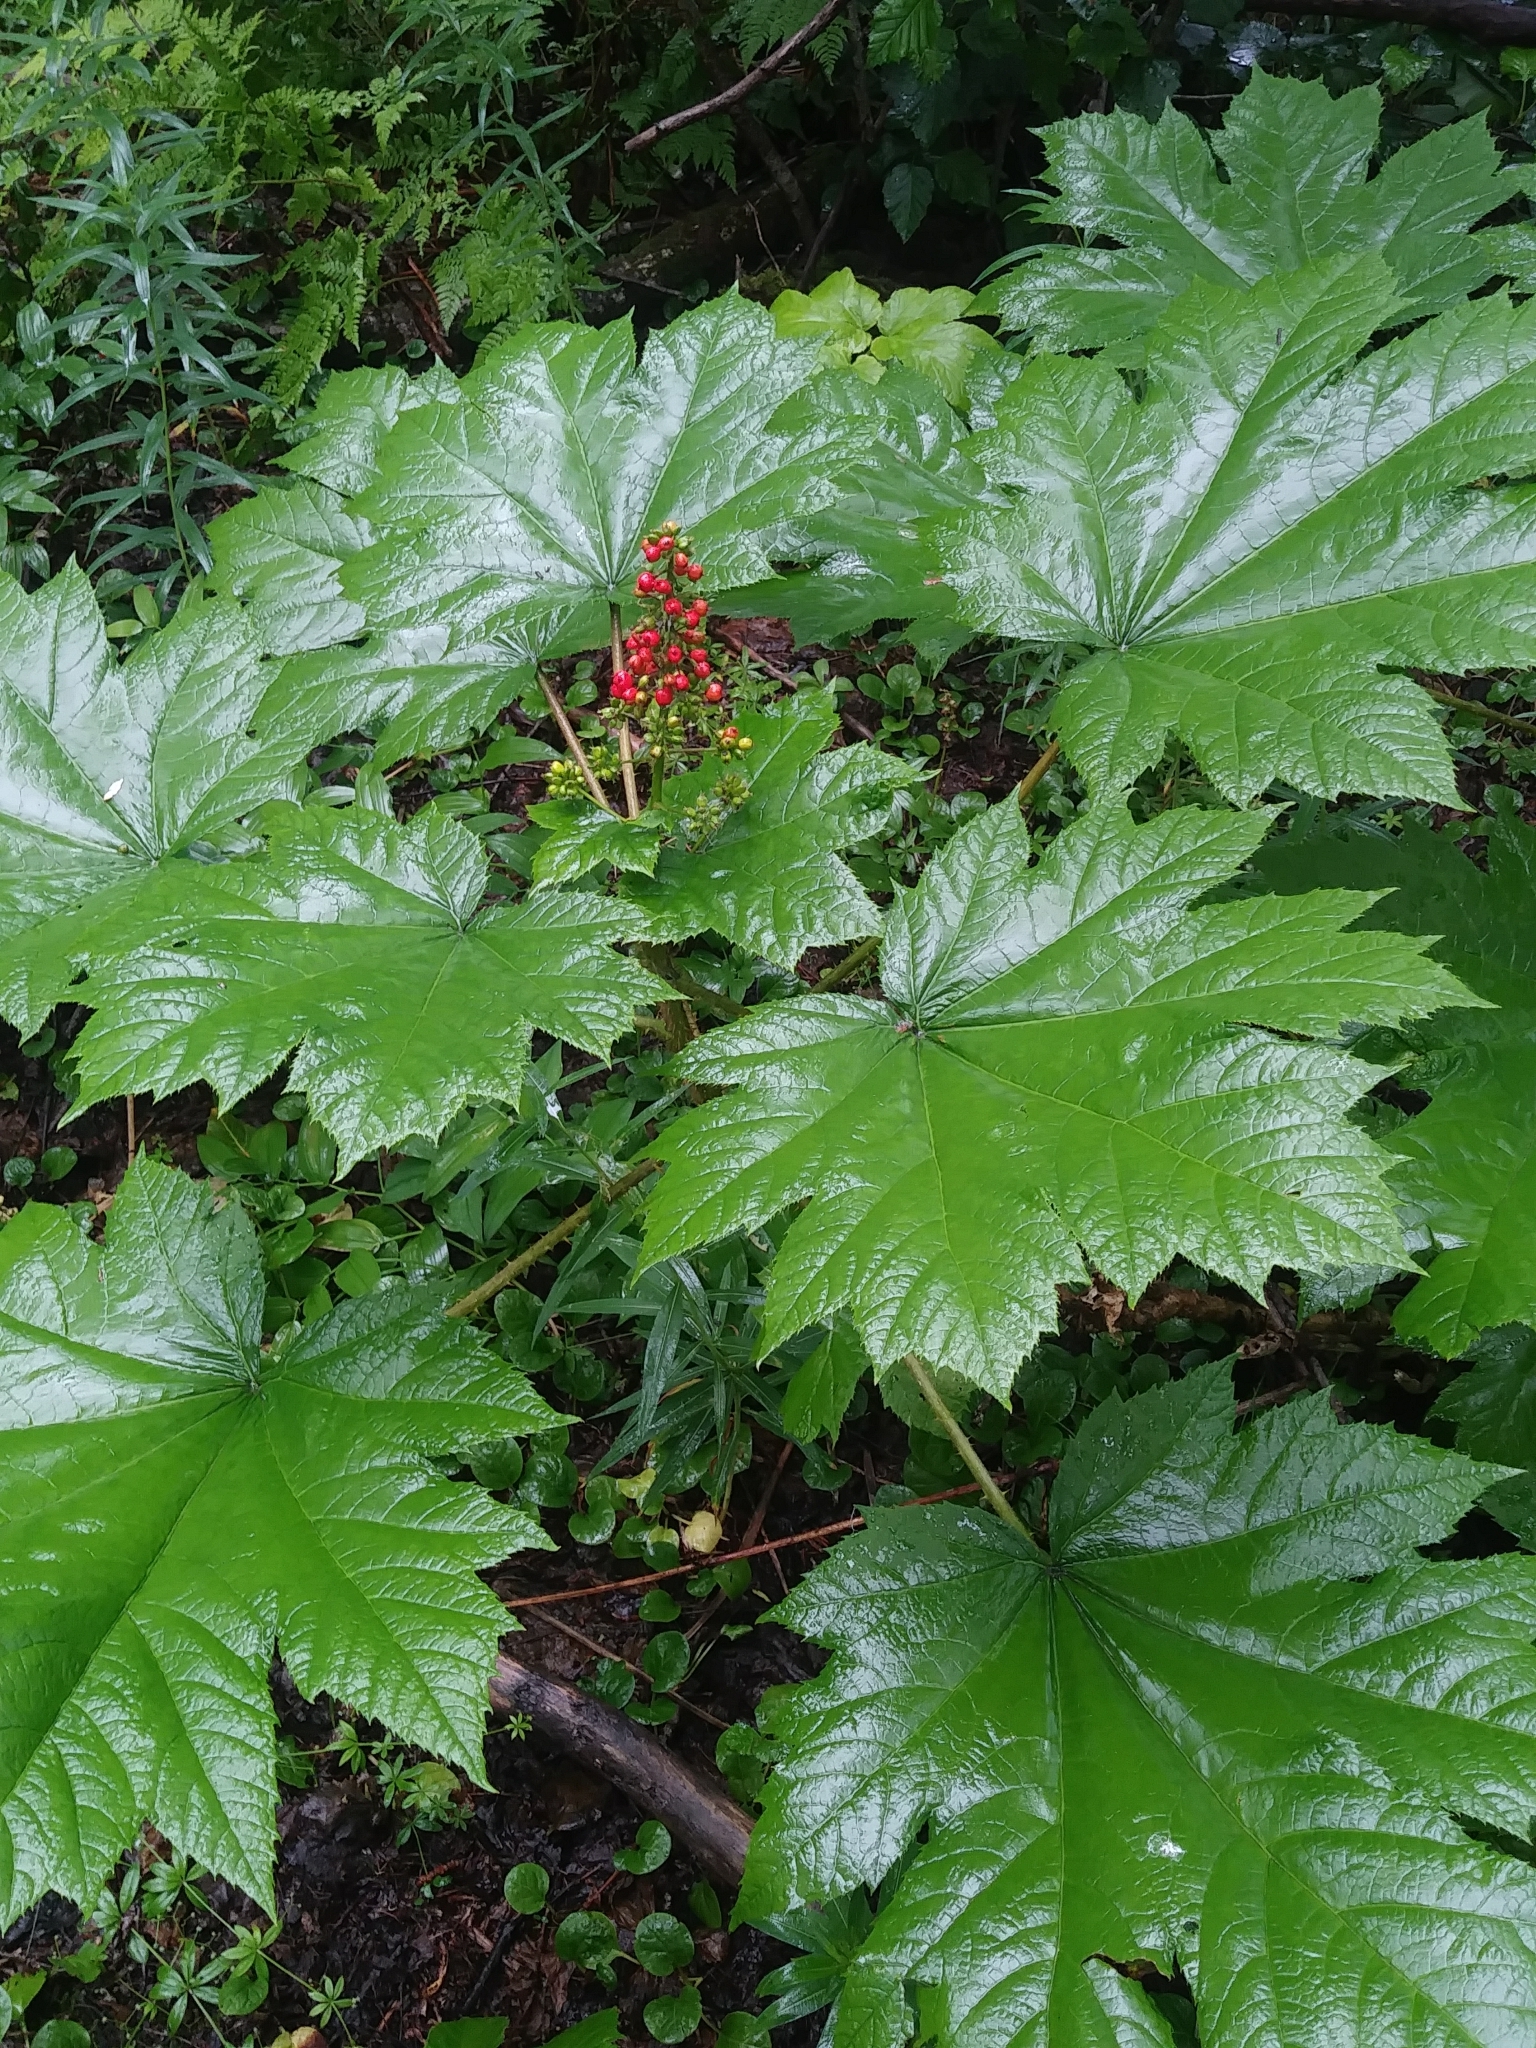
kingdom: Plantae
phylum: Tracheophyta
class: Magnoliopsida
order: Apiales
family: Araliaceae
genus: Oplopanax
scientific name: Oplopanax horridus
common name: Devil's walking-stick
